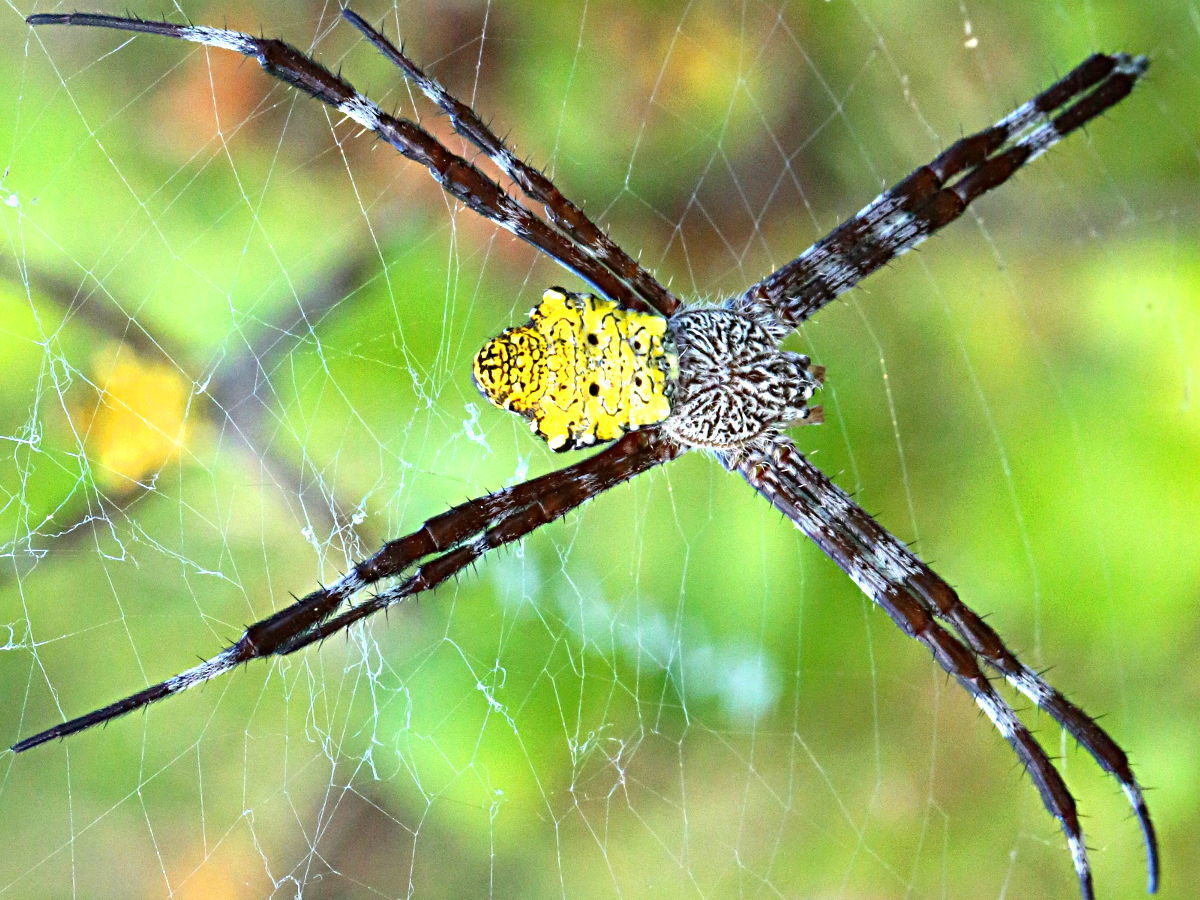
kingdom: Animalia
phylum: Arthropoda
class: Arachnida
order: Araneae
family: Araneidae
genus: Argiope
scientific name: Argiope appensa
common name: Garden spider
